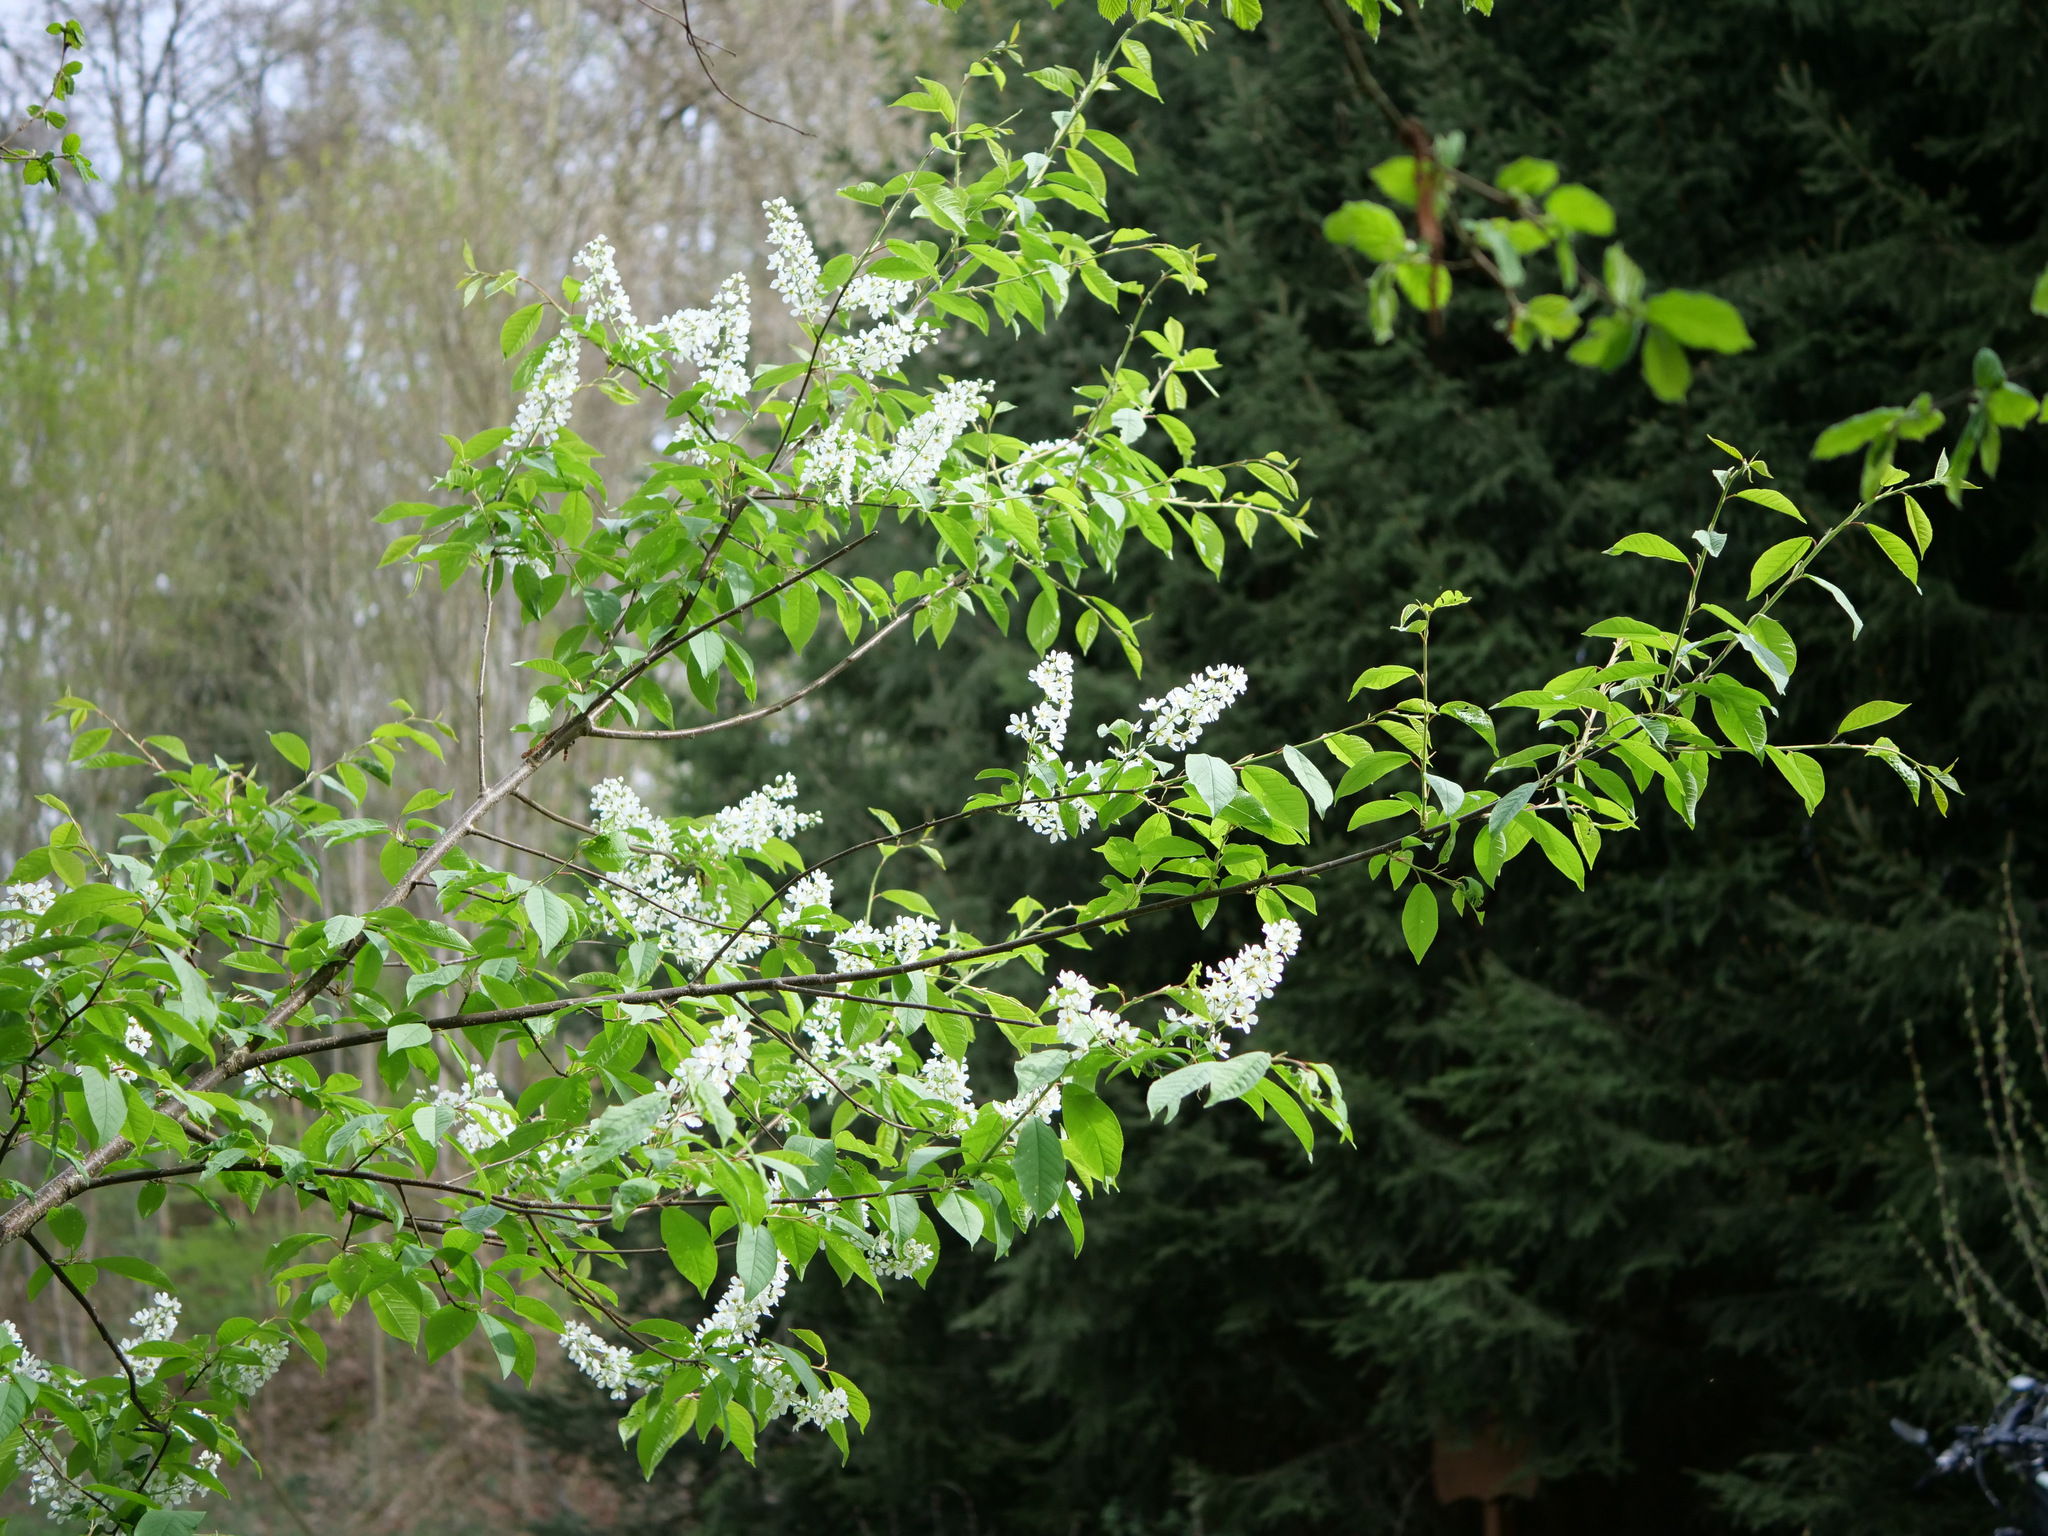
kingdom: Plantae
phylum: Tracheophyta
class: Magnoliopsida
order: Rosales
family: Rosaceae
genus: Prunus
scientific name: Prunus padus
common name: Bird cherry
